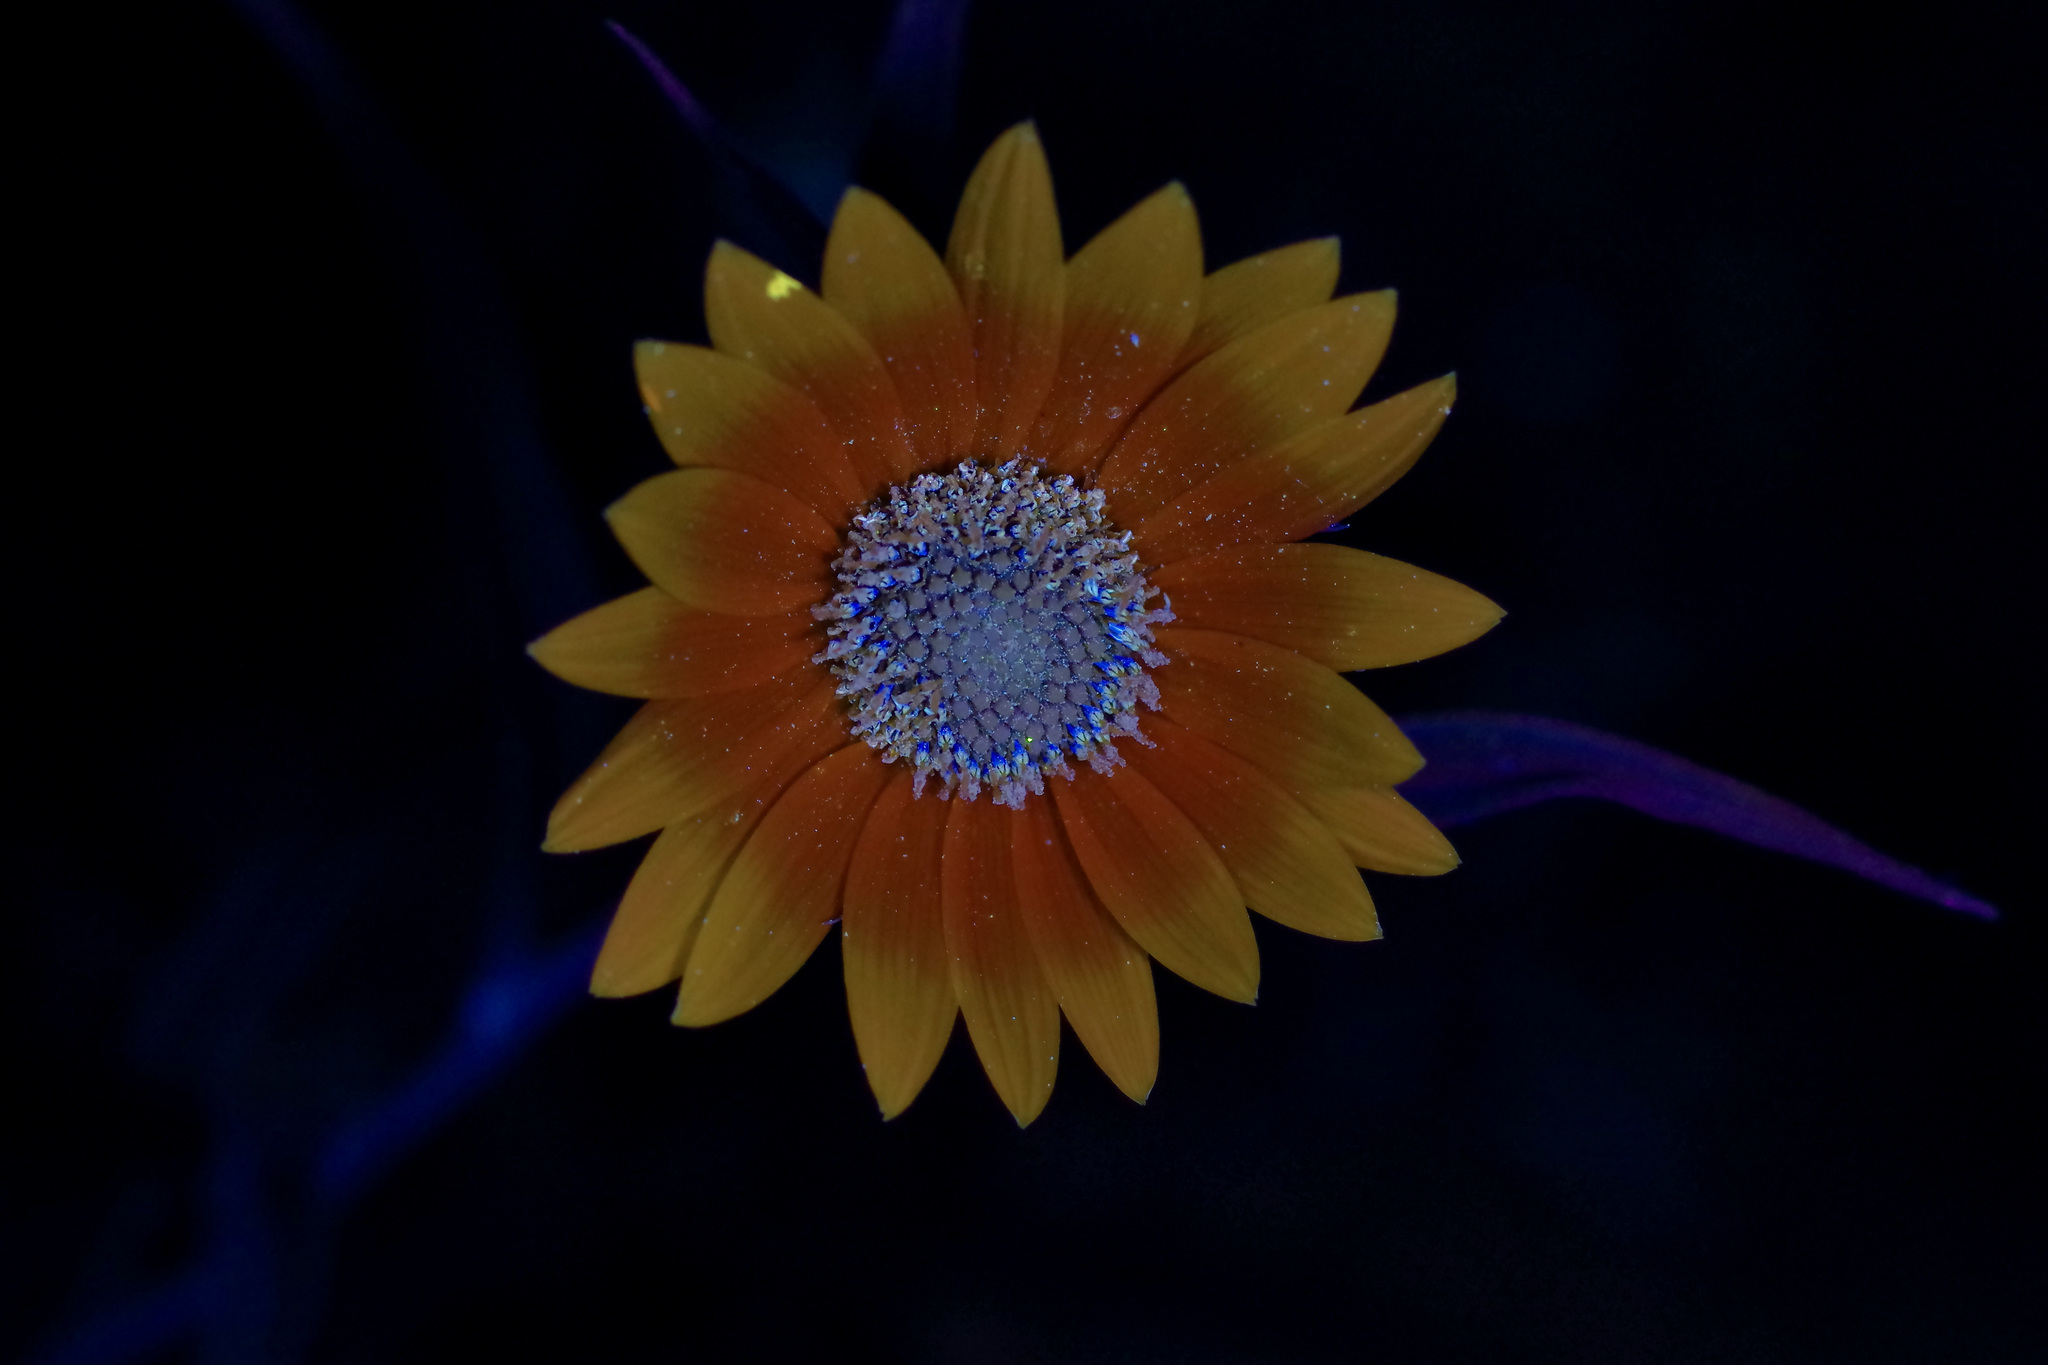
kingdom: Plantae
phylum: Tracheophyta
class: Magnoliopsida
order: Asterales
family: Asteraceae
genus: Helianthus
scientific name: Helianthus maximiliani
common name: Maximilian's sunflower
